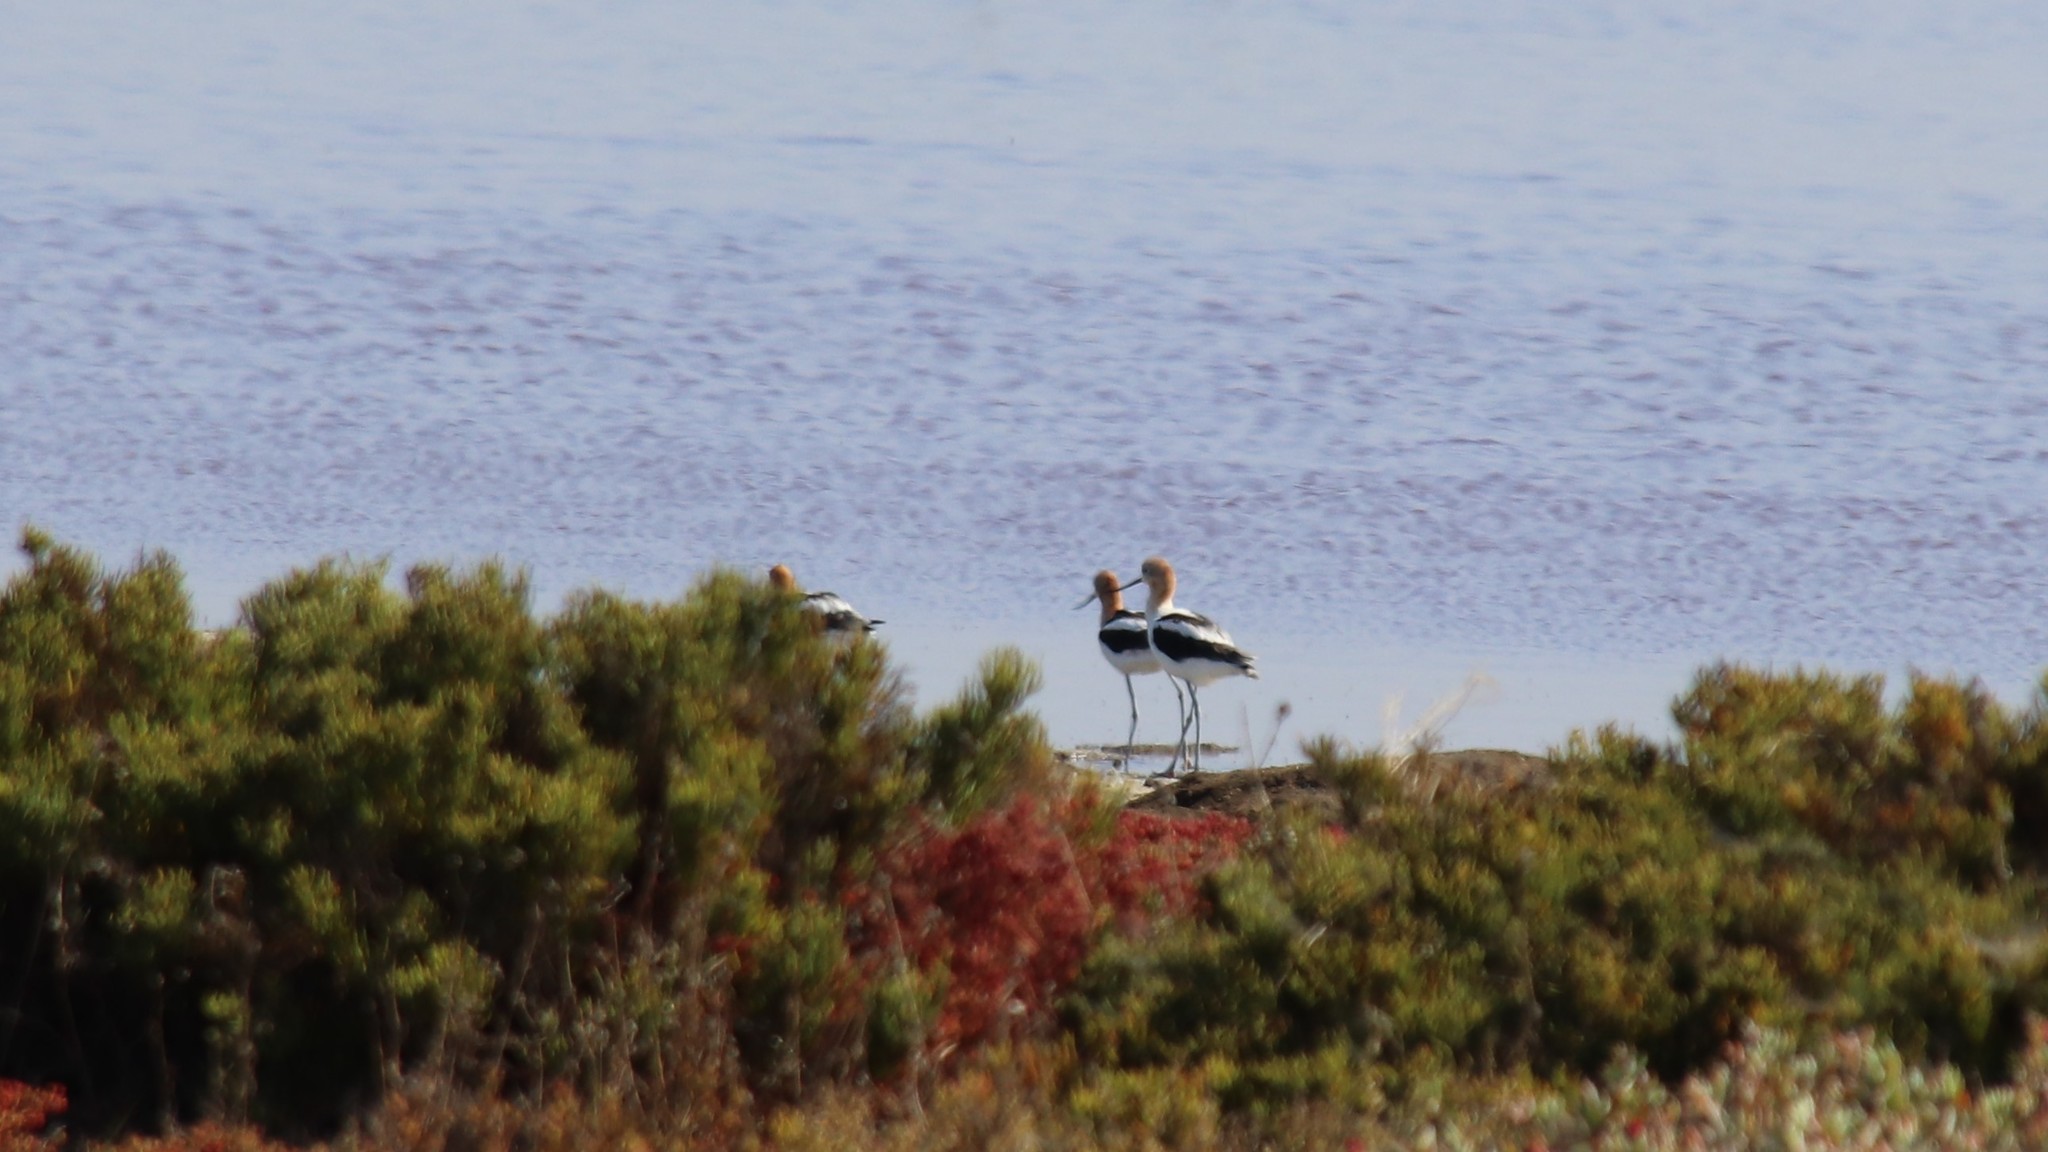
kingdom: Animalia
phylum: Chordata
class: Aves
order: Charadriiformes
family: Recurvirostridae
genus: Recurvirostra
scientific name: Recurvirostra americana
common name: American avocet
